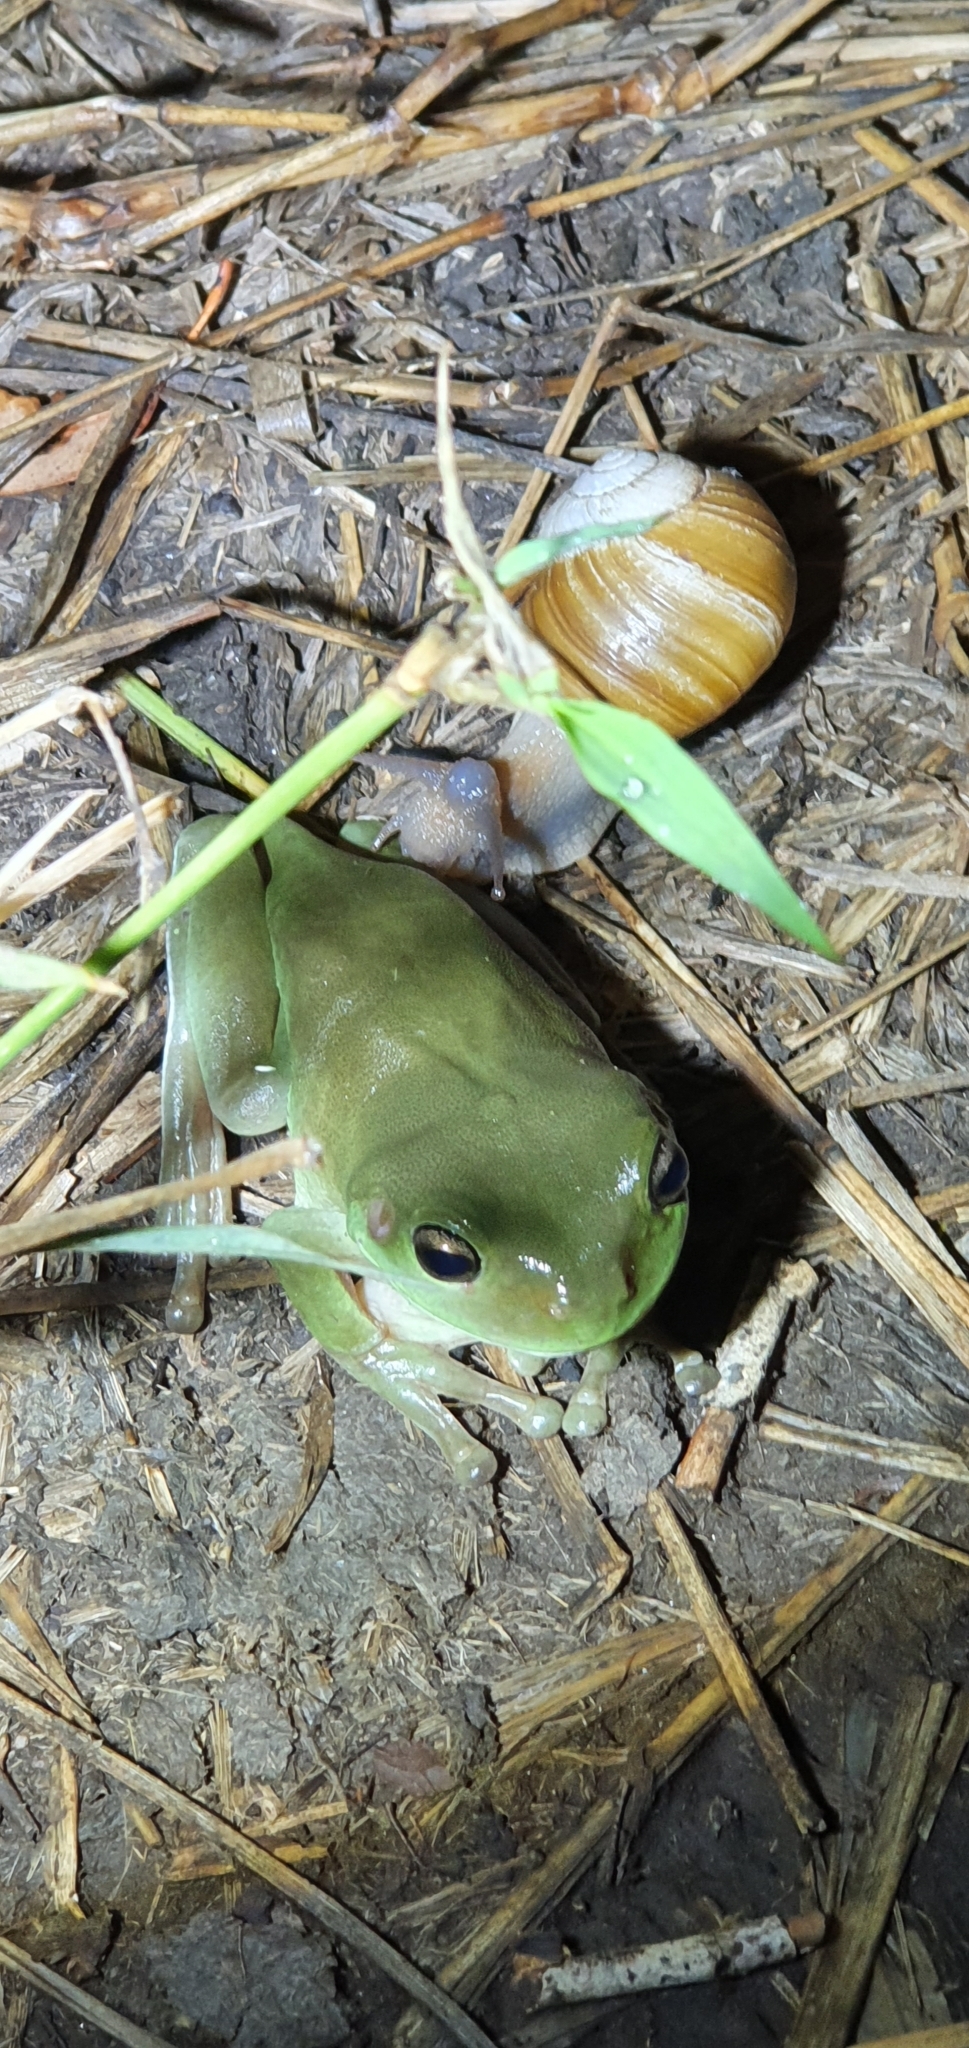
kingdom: Animalia
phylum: Chordata
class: Amphibia
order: Anura
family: Pelodryadidae
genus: Ranoidea
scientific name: Ranoidea caerulea
